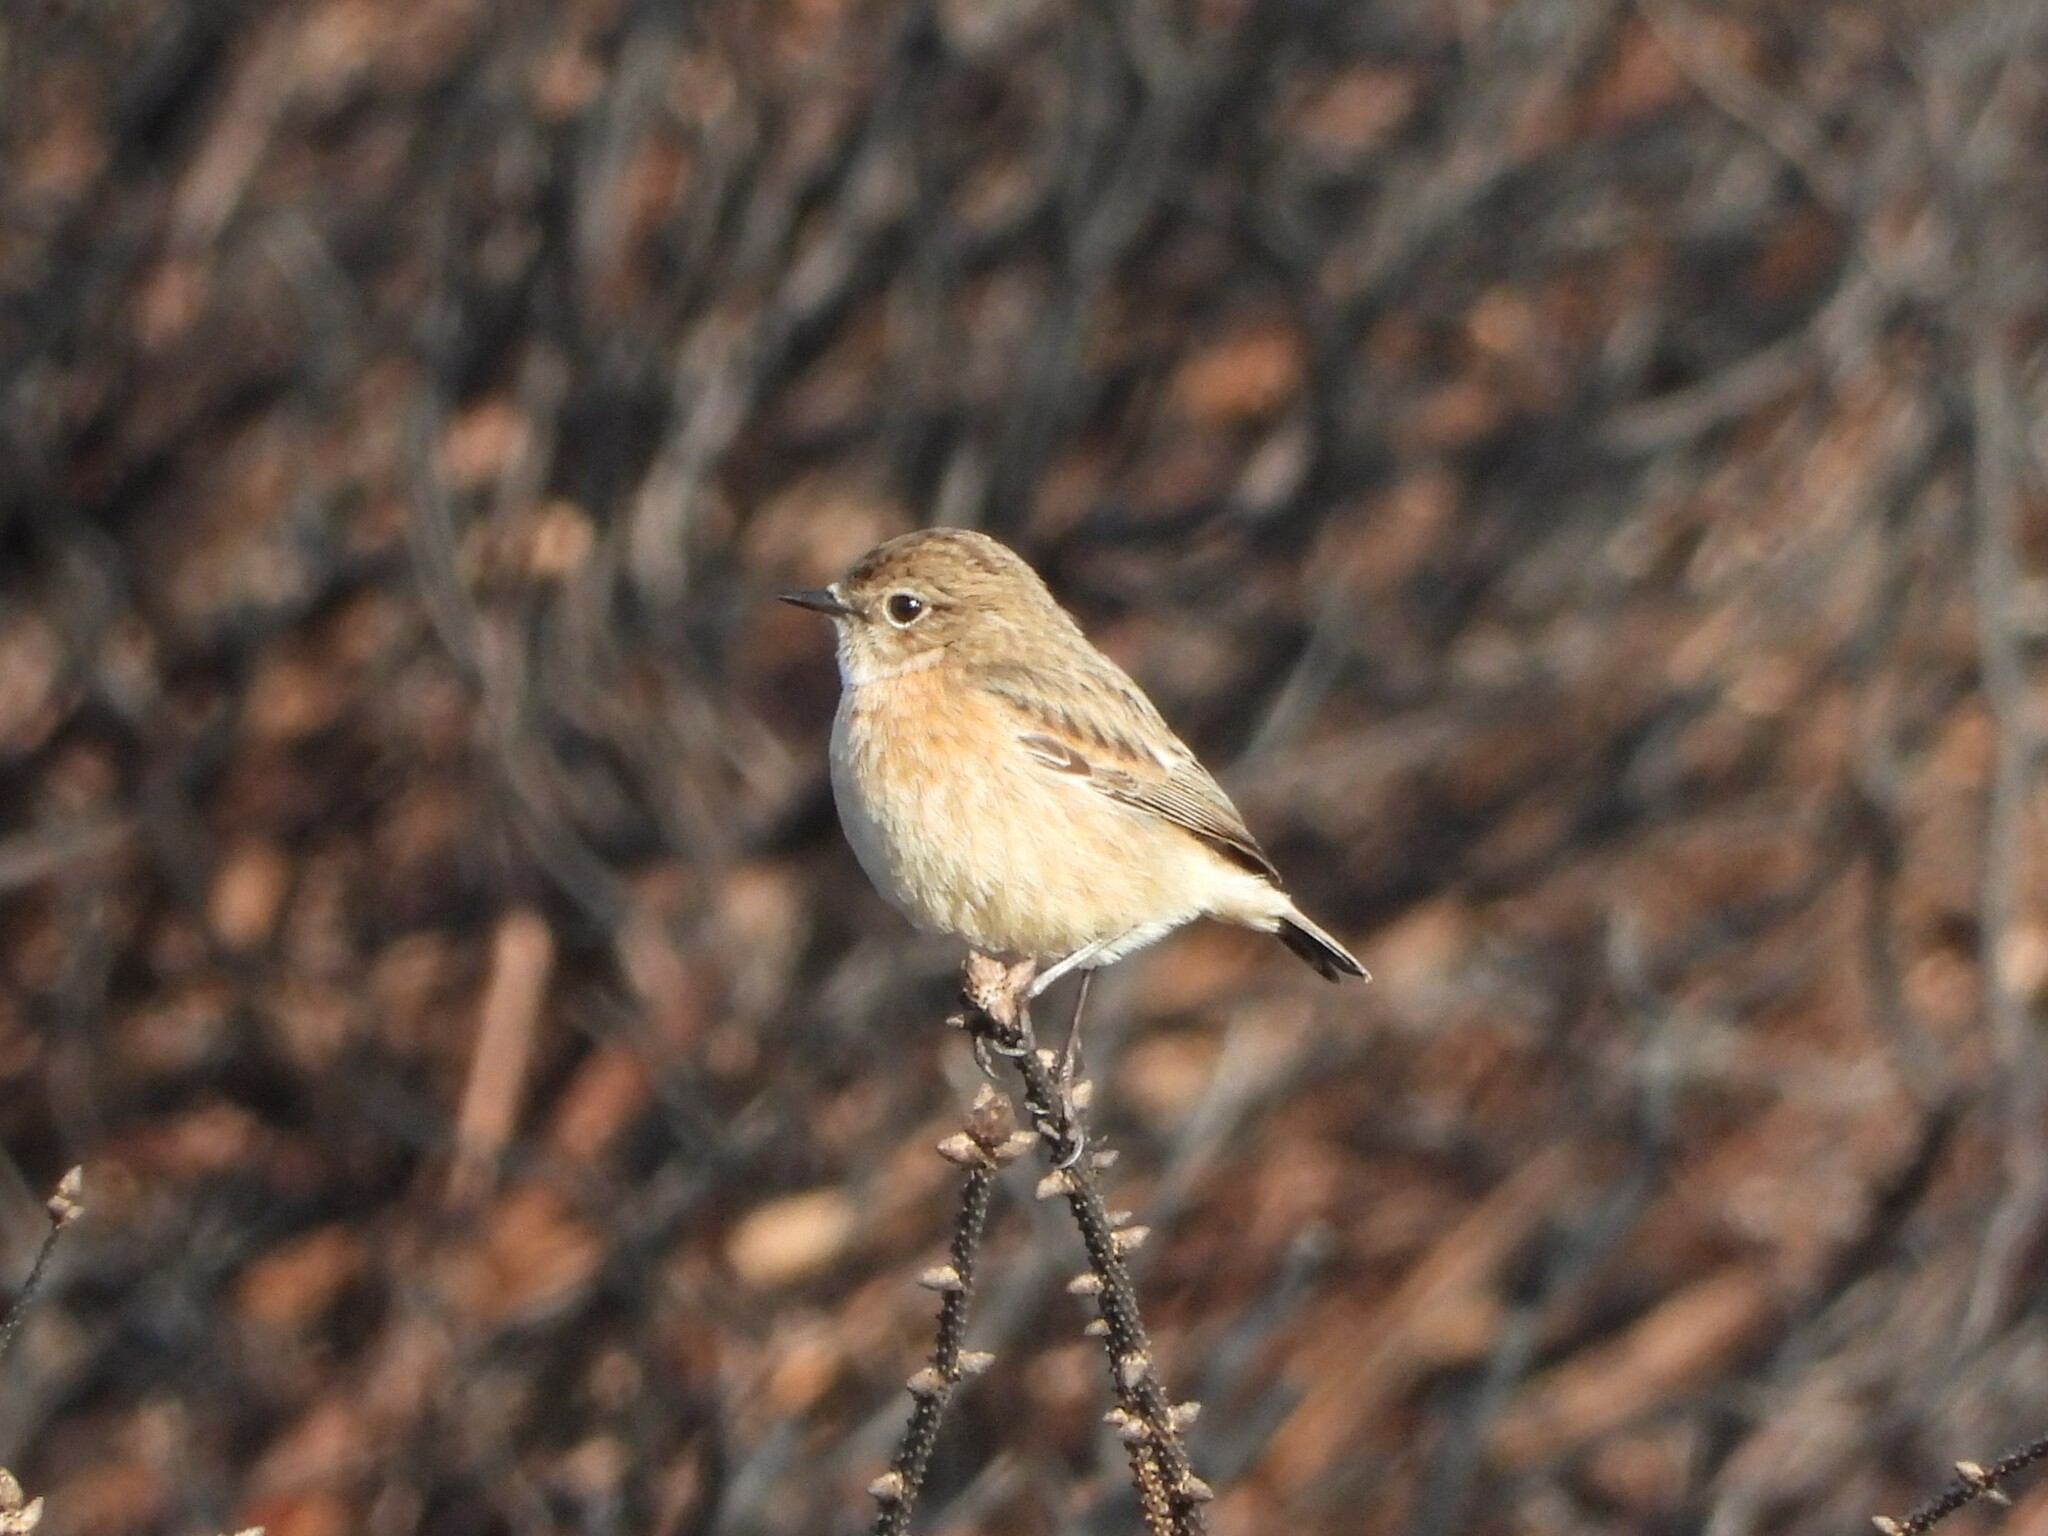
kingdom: Animalia
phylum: Chordata
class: Aves
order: Passeriformes
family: Muscicapidae
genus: Saxicola
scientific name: Saxicola rubicola
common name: European stonechat
